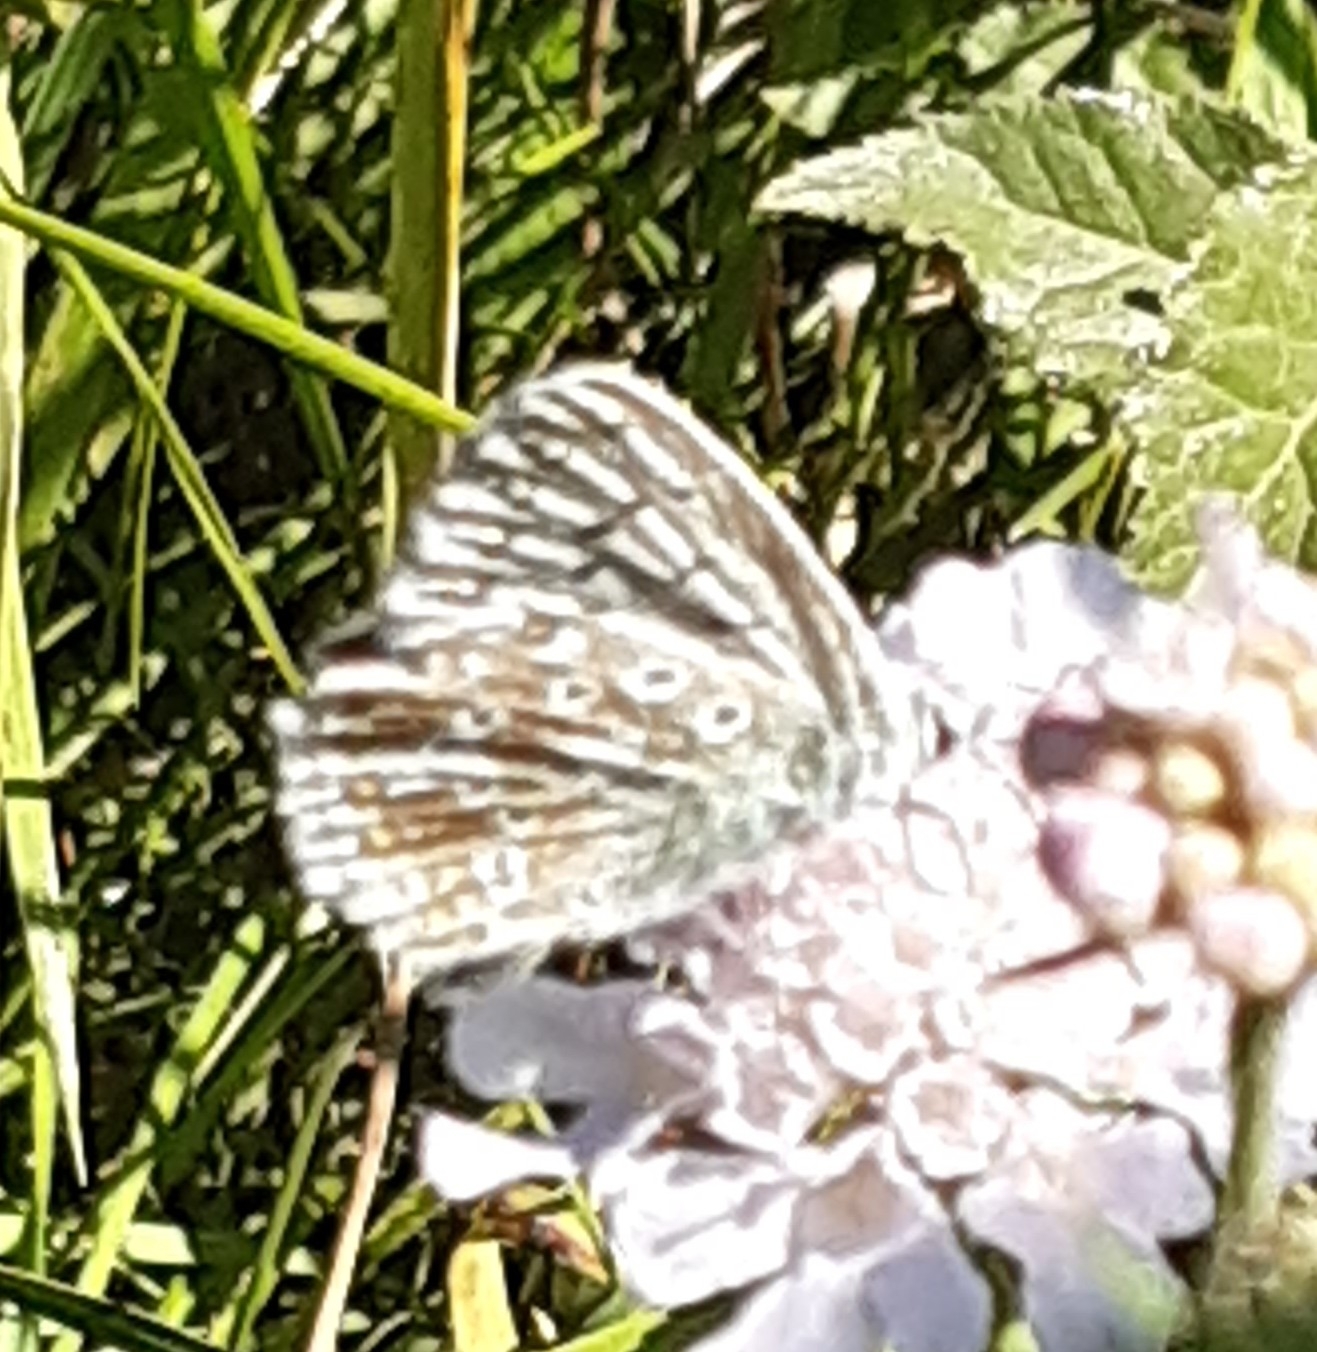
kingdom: Animalia
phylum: Arthropoda
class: Insecta
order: Lepidoptera
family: Lycaenidae
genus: Lysandra
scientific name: Lysandra coridon
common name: Chalkhill blue
